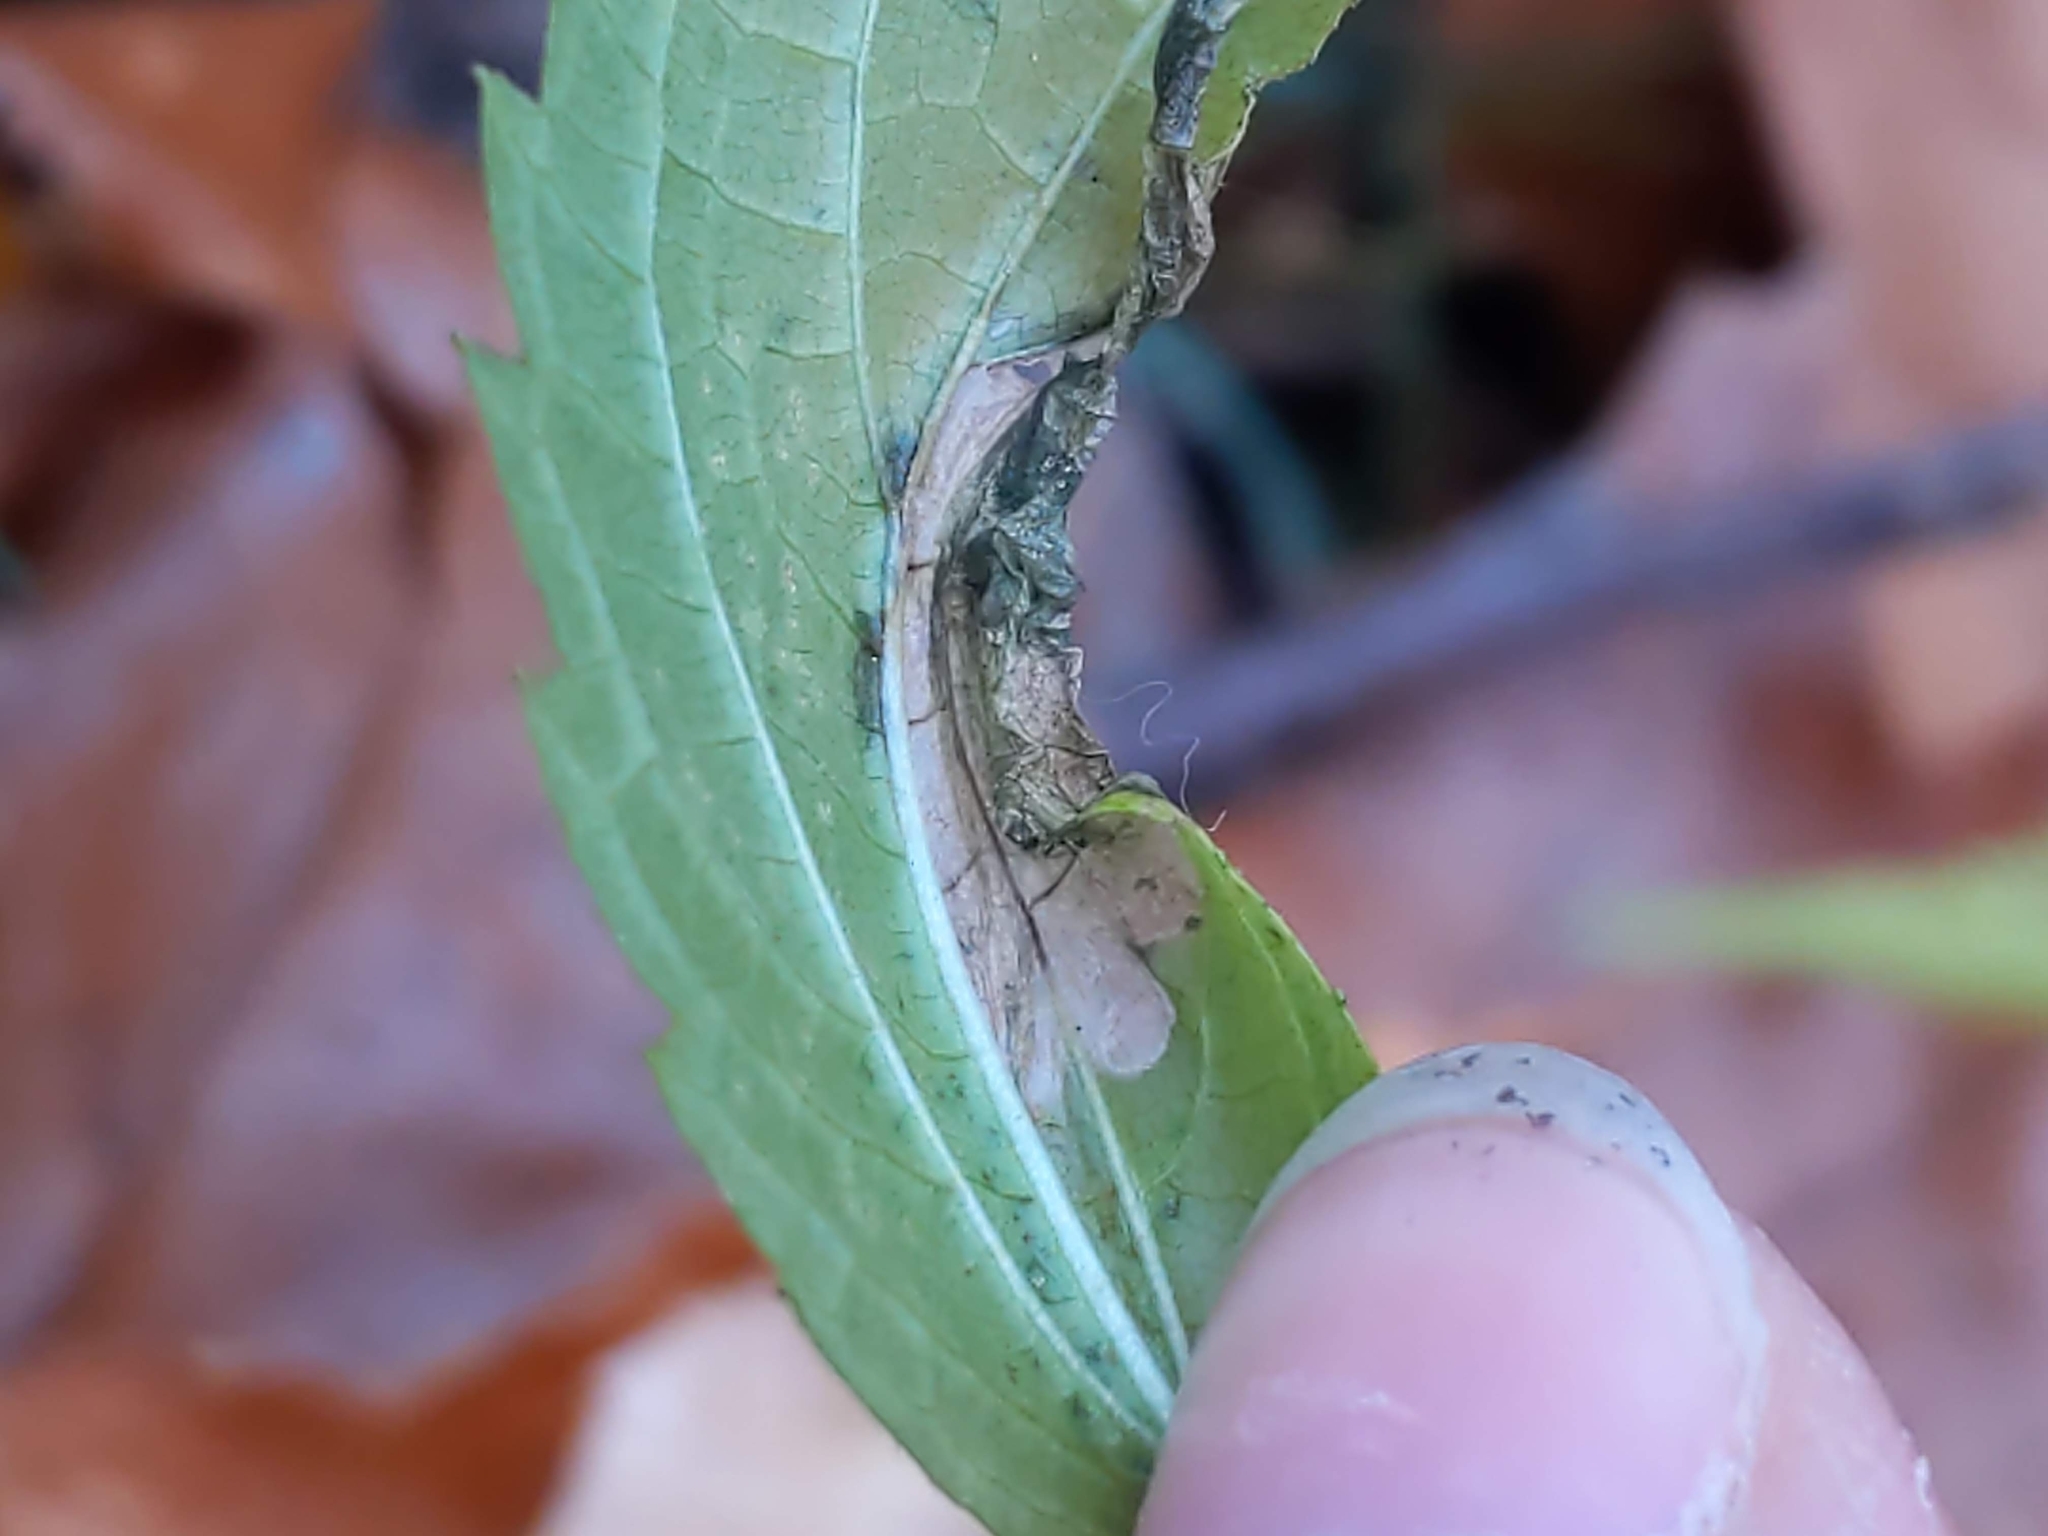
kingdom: Animalia
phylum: Arthropoda
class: Insecta
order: Lepidoptera
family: Gracillariidae
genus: Leucospilapteryx
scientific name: Leucospilapteryx venustella
